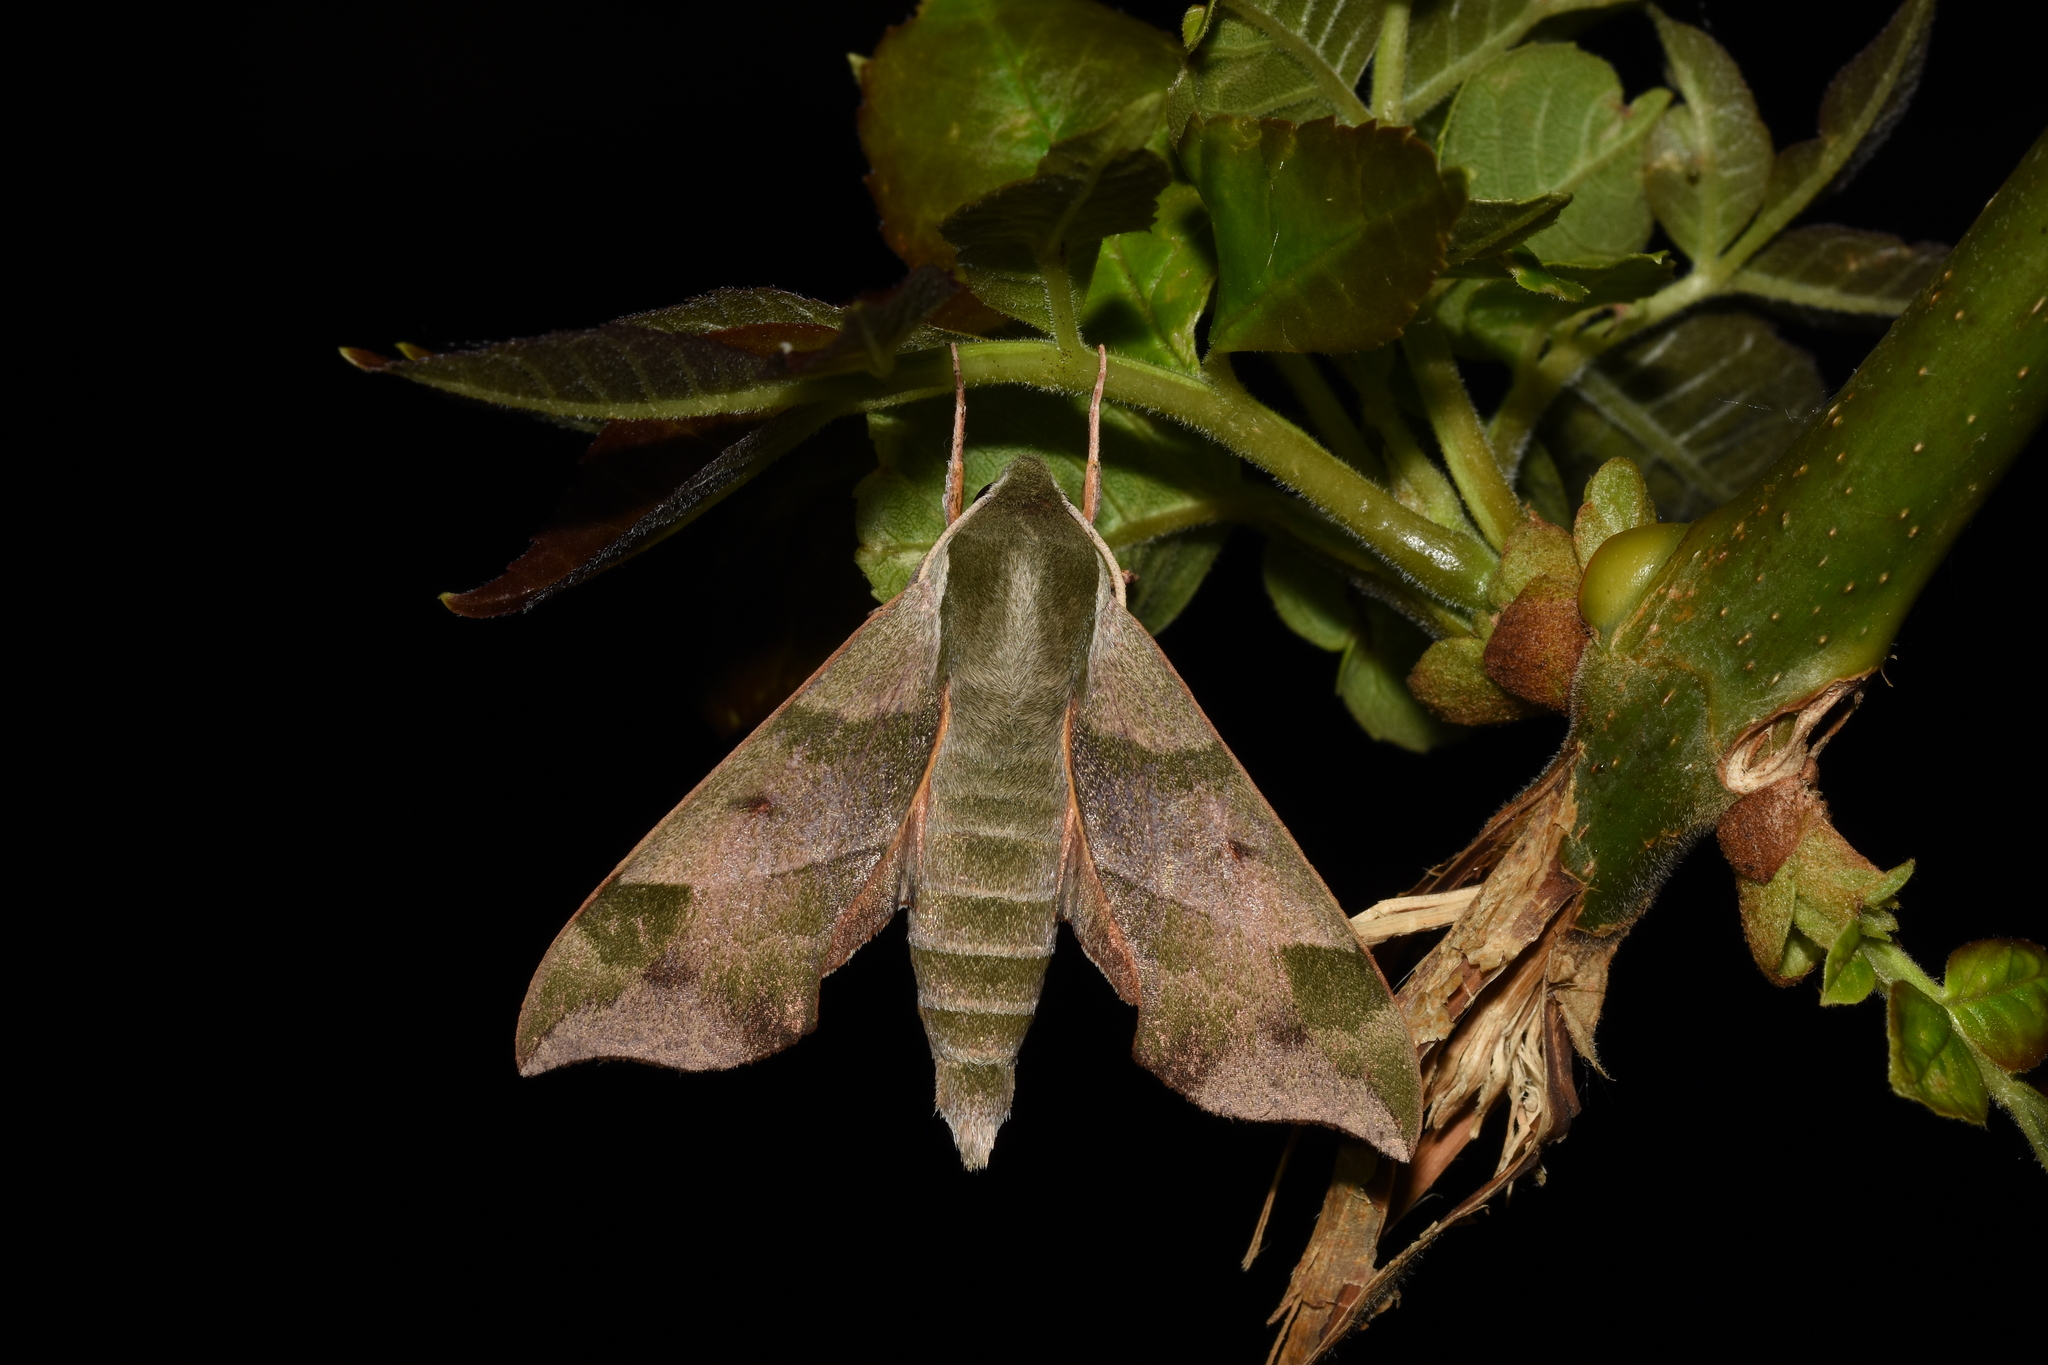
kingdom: Animalia
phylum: Arthropoda
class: Insecta
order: Lepidoptera
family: Sphingidae
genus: Darapsa
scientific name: Darapsa myron
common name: Hog sphinx
